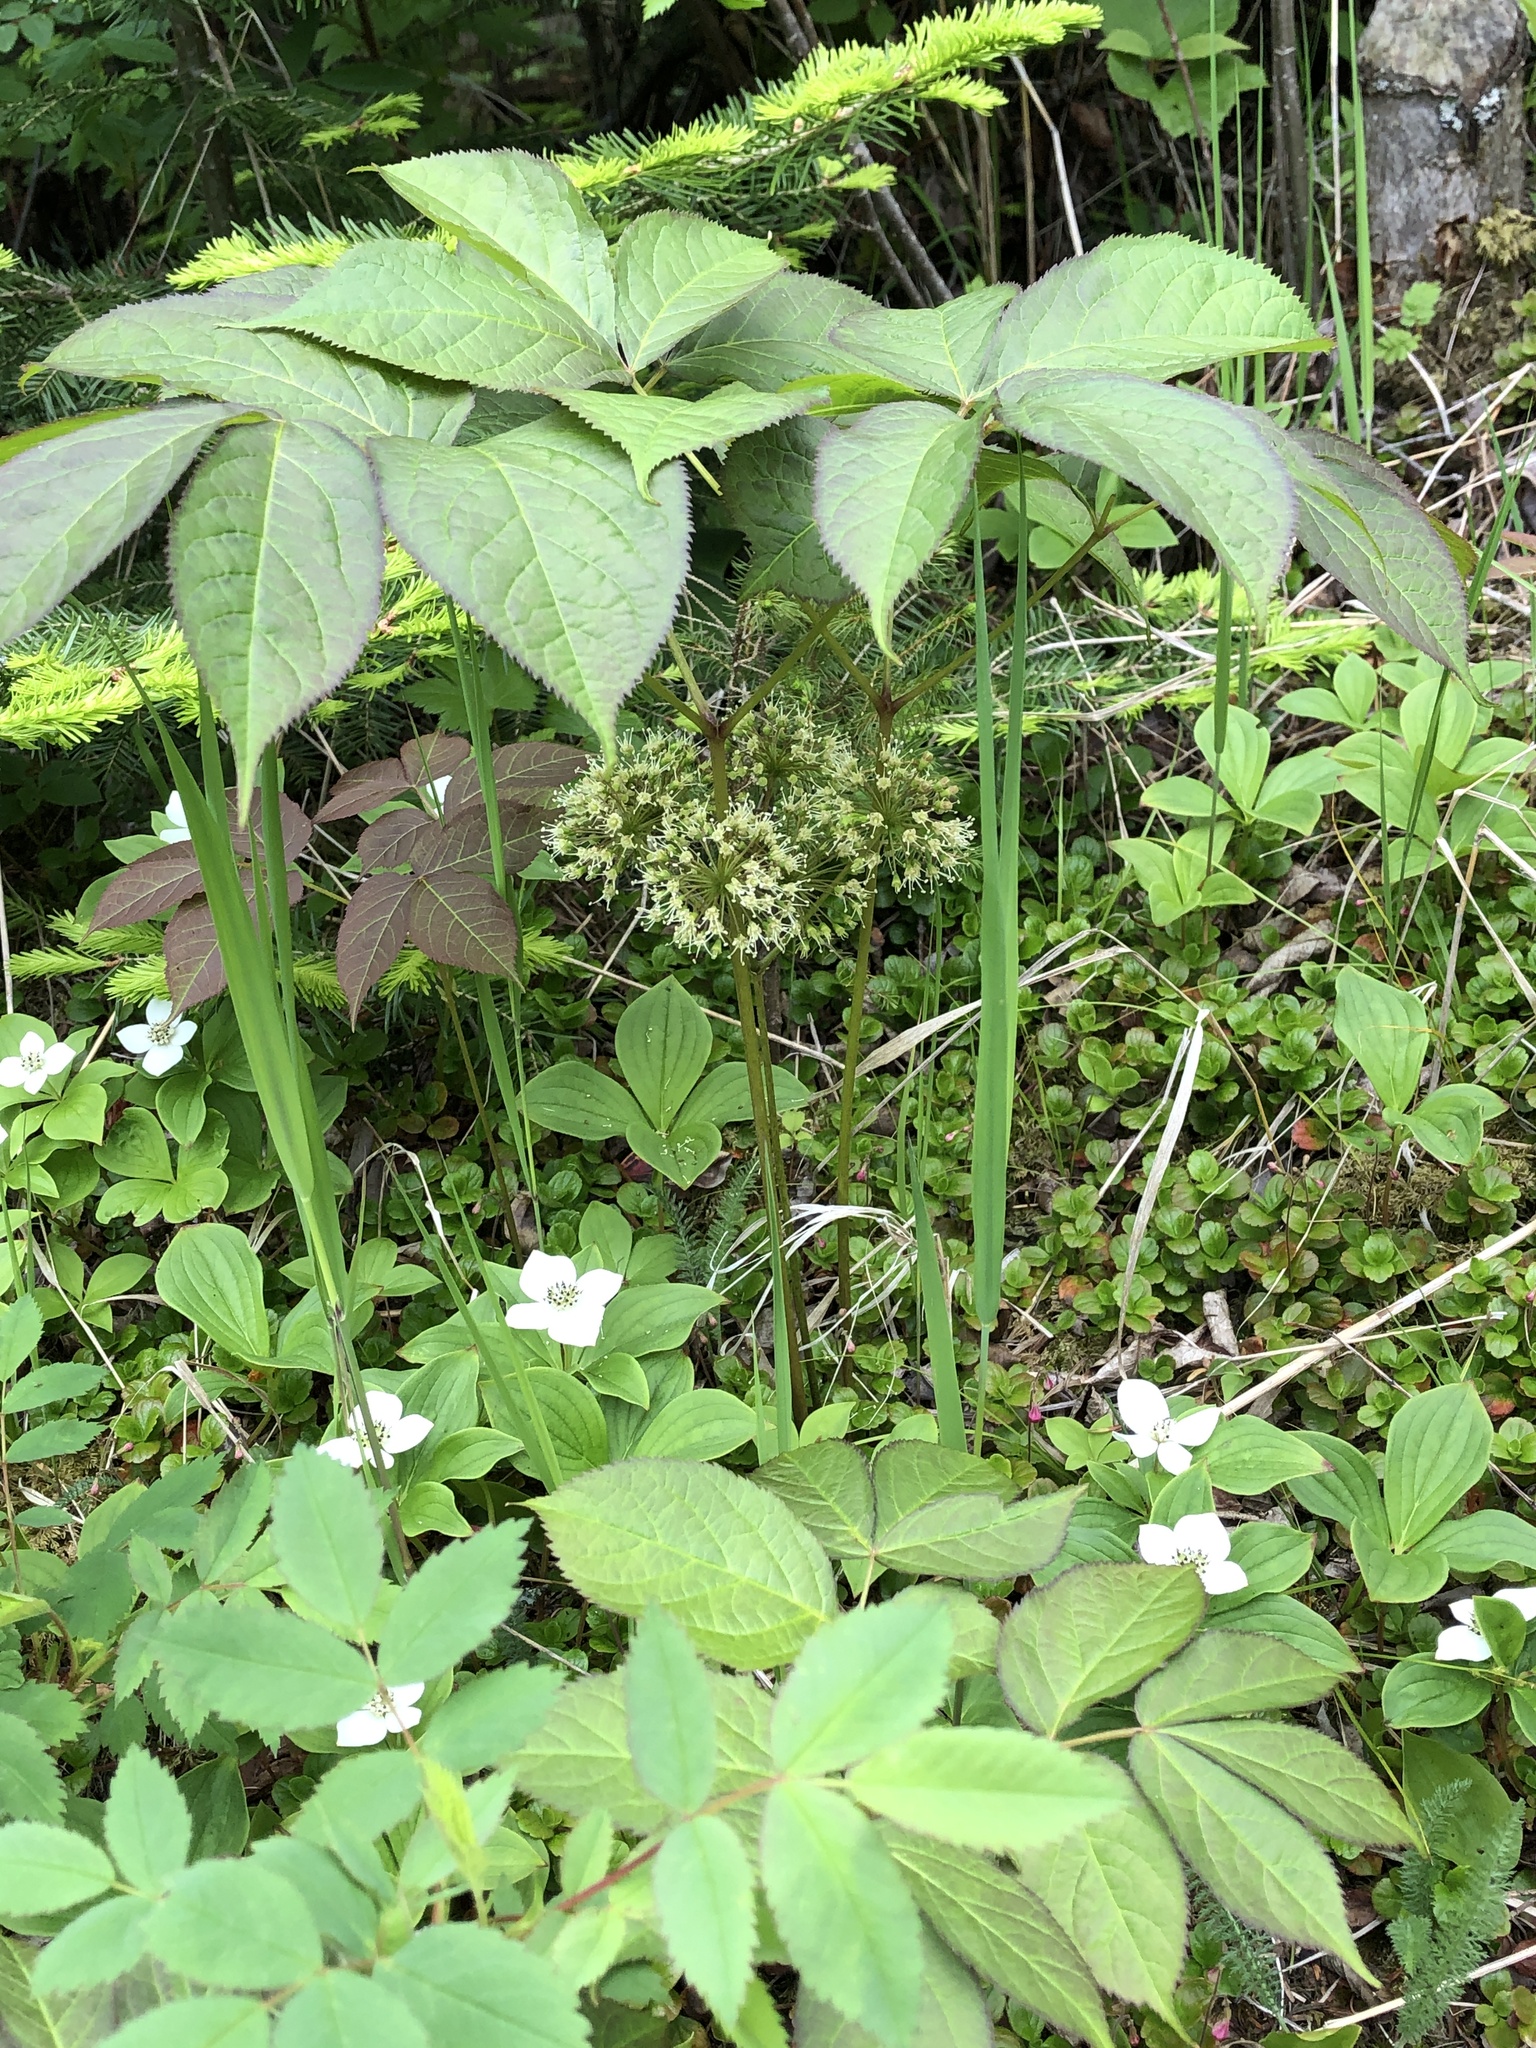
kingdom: Plantae
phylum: Tracheophyta
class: Magnoliopsida
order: Apiales
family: Araliaceae
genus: Aralia
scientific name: Aralia nudicaulis
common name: Wild sarsaparilla
